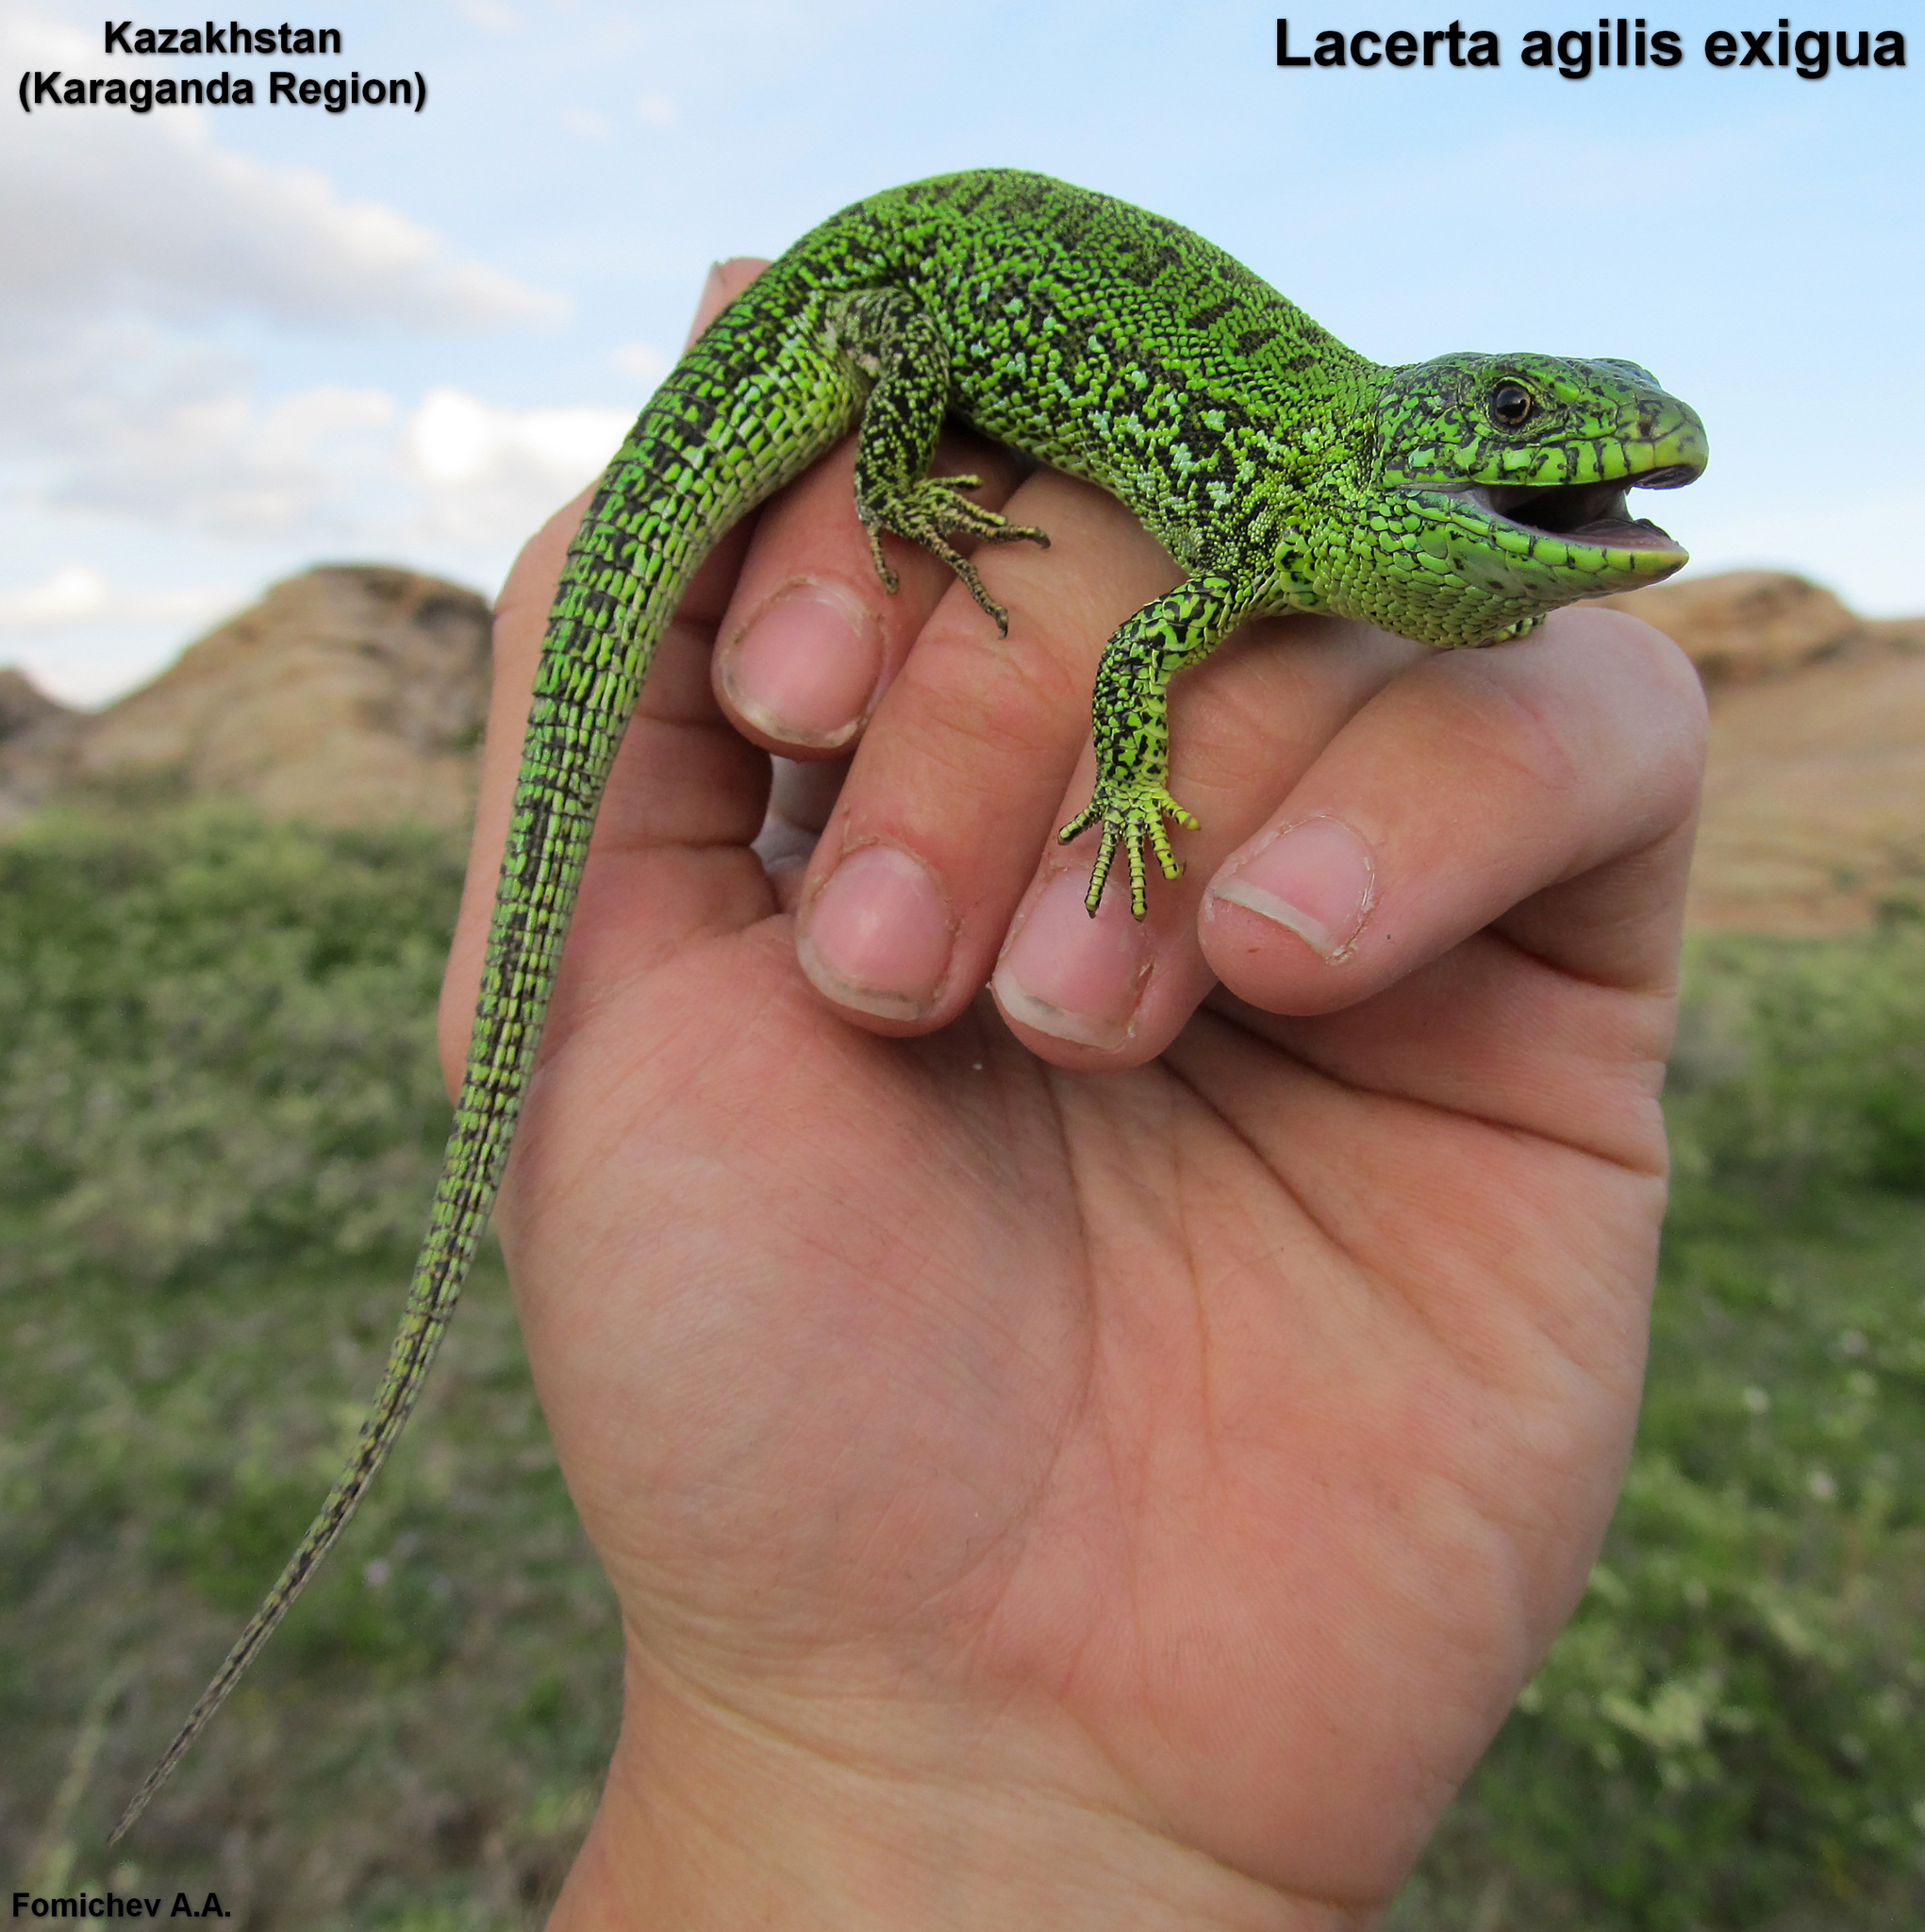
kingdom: Animalia
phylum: Chordata
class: Squamata
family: Lacertidae
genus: Lacerta
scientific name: Lacerta agilis
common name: Sand lizard
